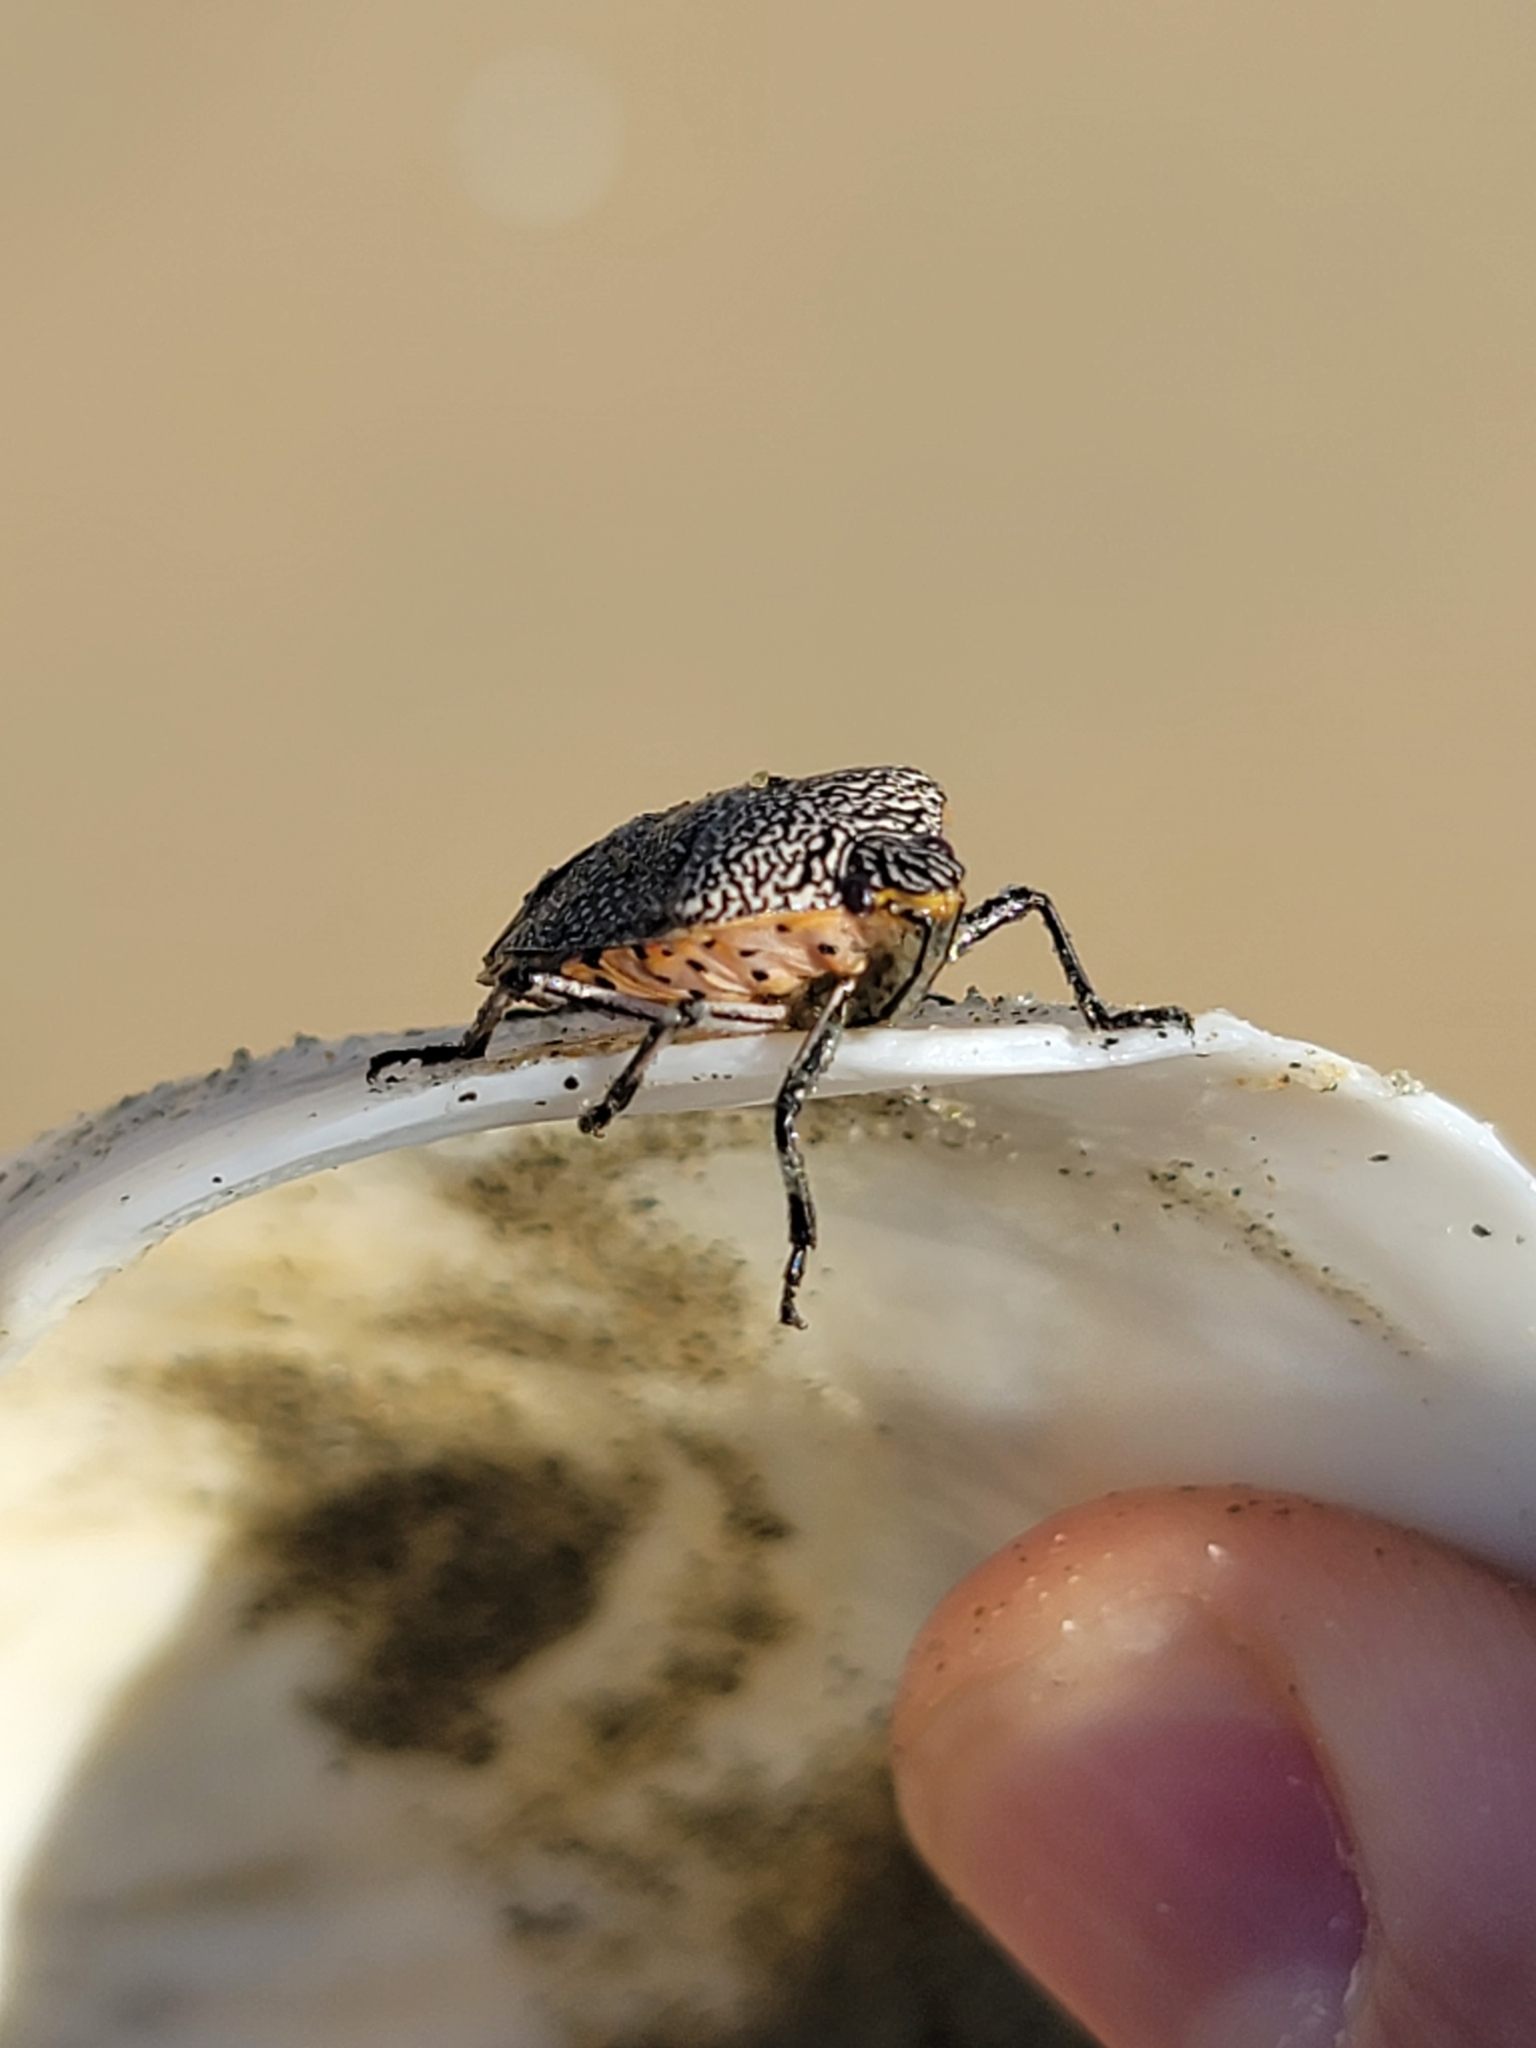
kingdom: Animalia
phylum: Arthropoda
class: Insecta
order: Hemiptera
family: Pentatomidae
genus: Pellaea
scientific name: Pellaea stictica
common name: Stink bug
